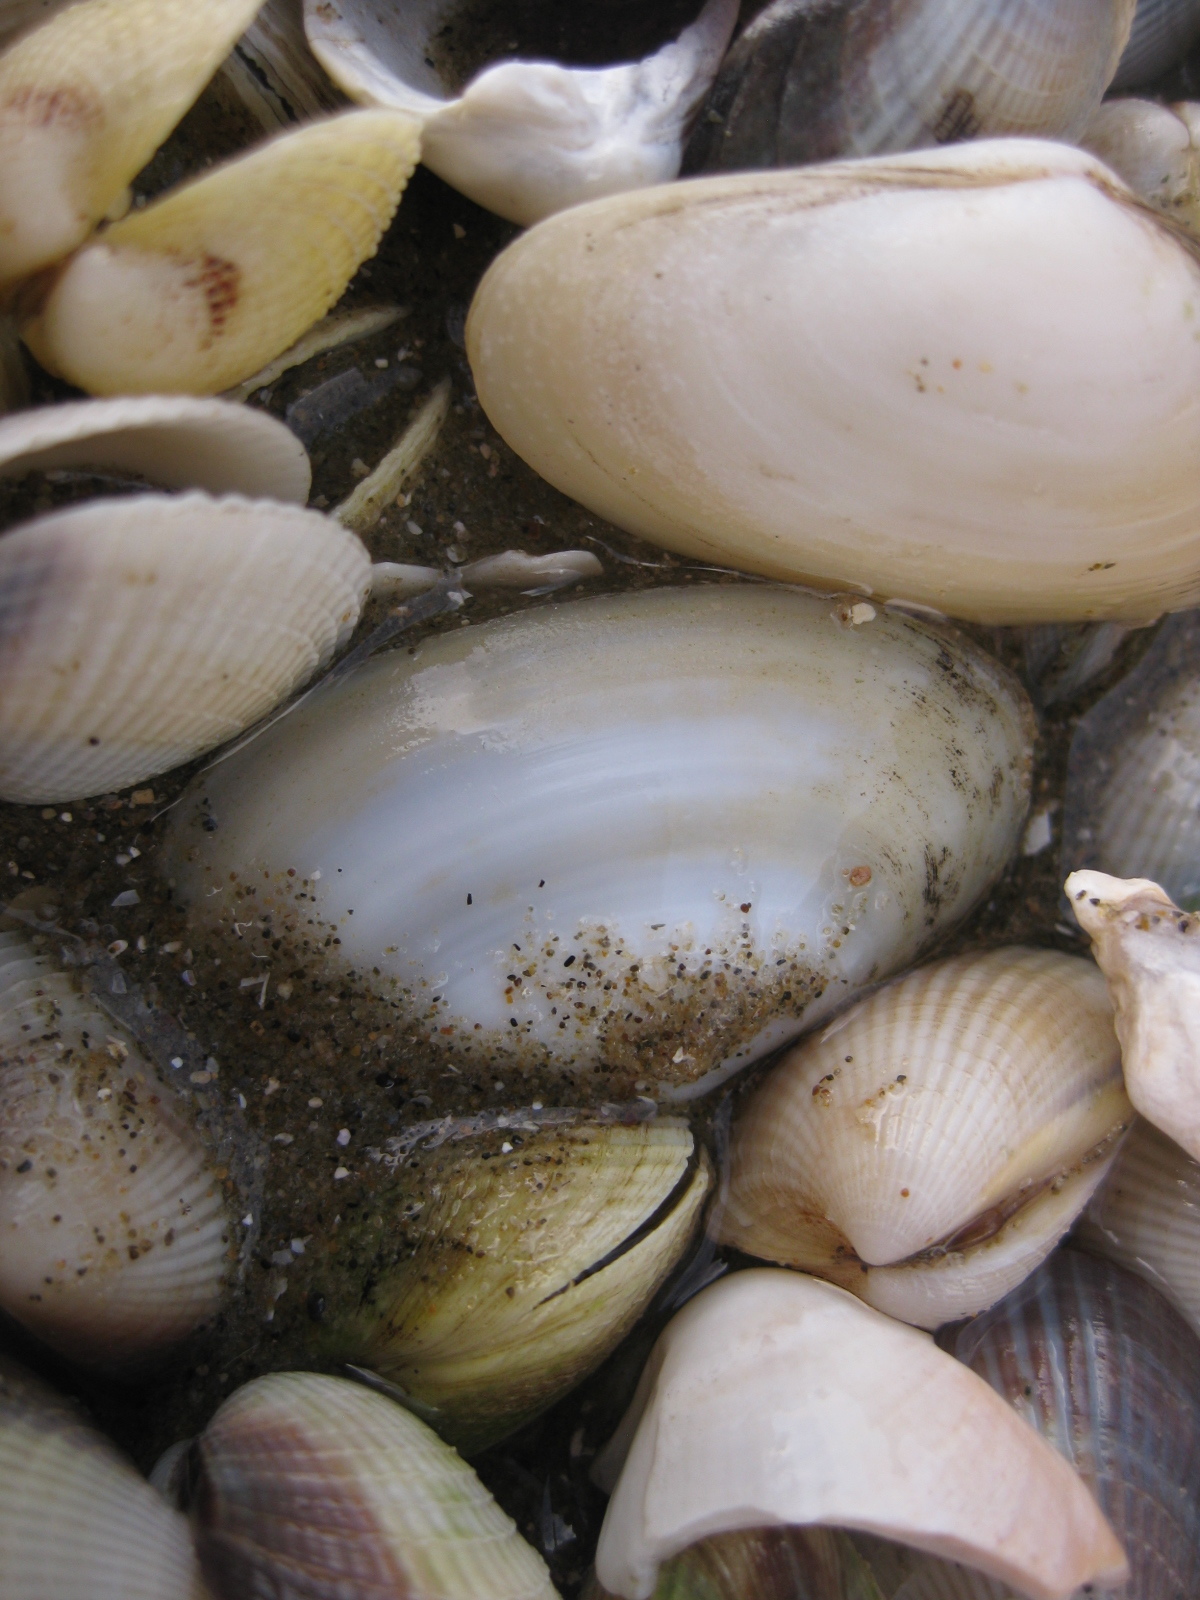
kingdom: Animalia
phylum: Mollusca
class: Bivalvia
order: Venerida
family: Mesodesmatidae
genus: Paphies
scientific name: Paphies australis
